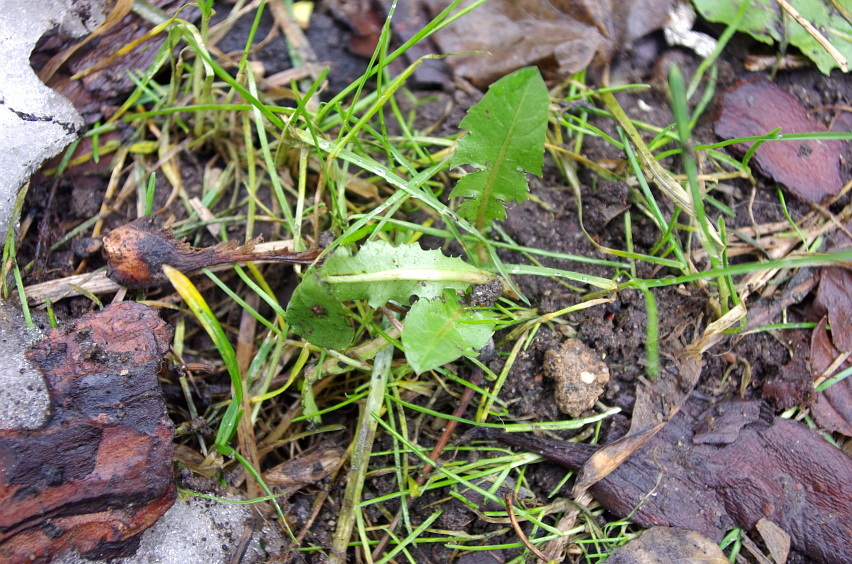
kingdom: Plantae
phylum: Tracheophyta
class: Magnoliopsida
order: Asterales
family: Asteraceae
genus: Taraxacum
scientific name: Taraxacum officinale
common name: Common dandelion
